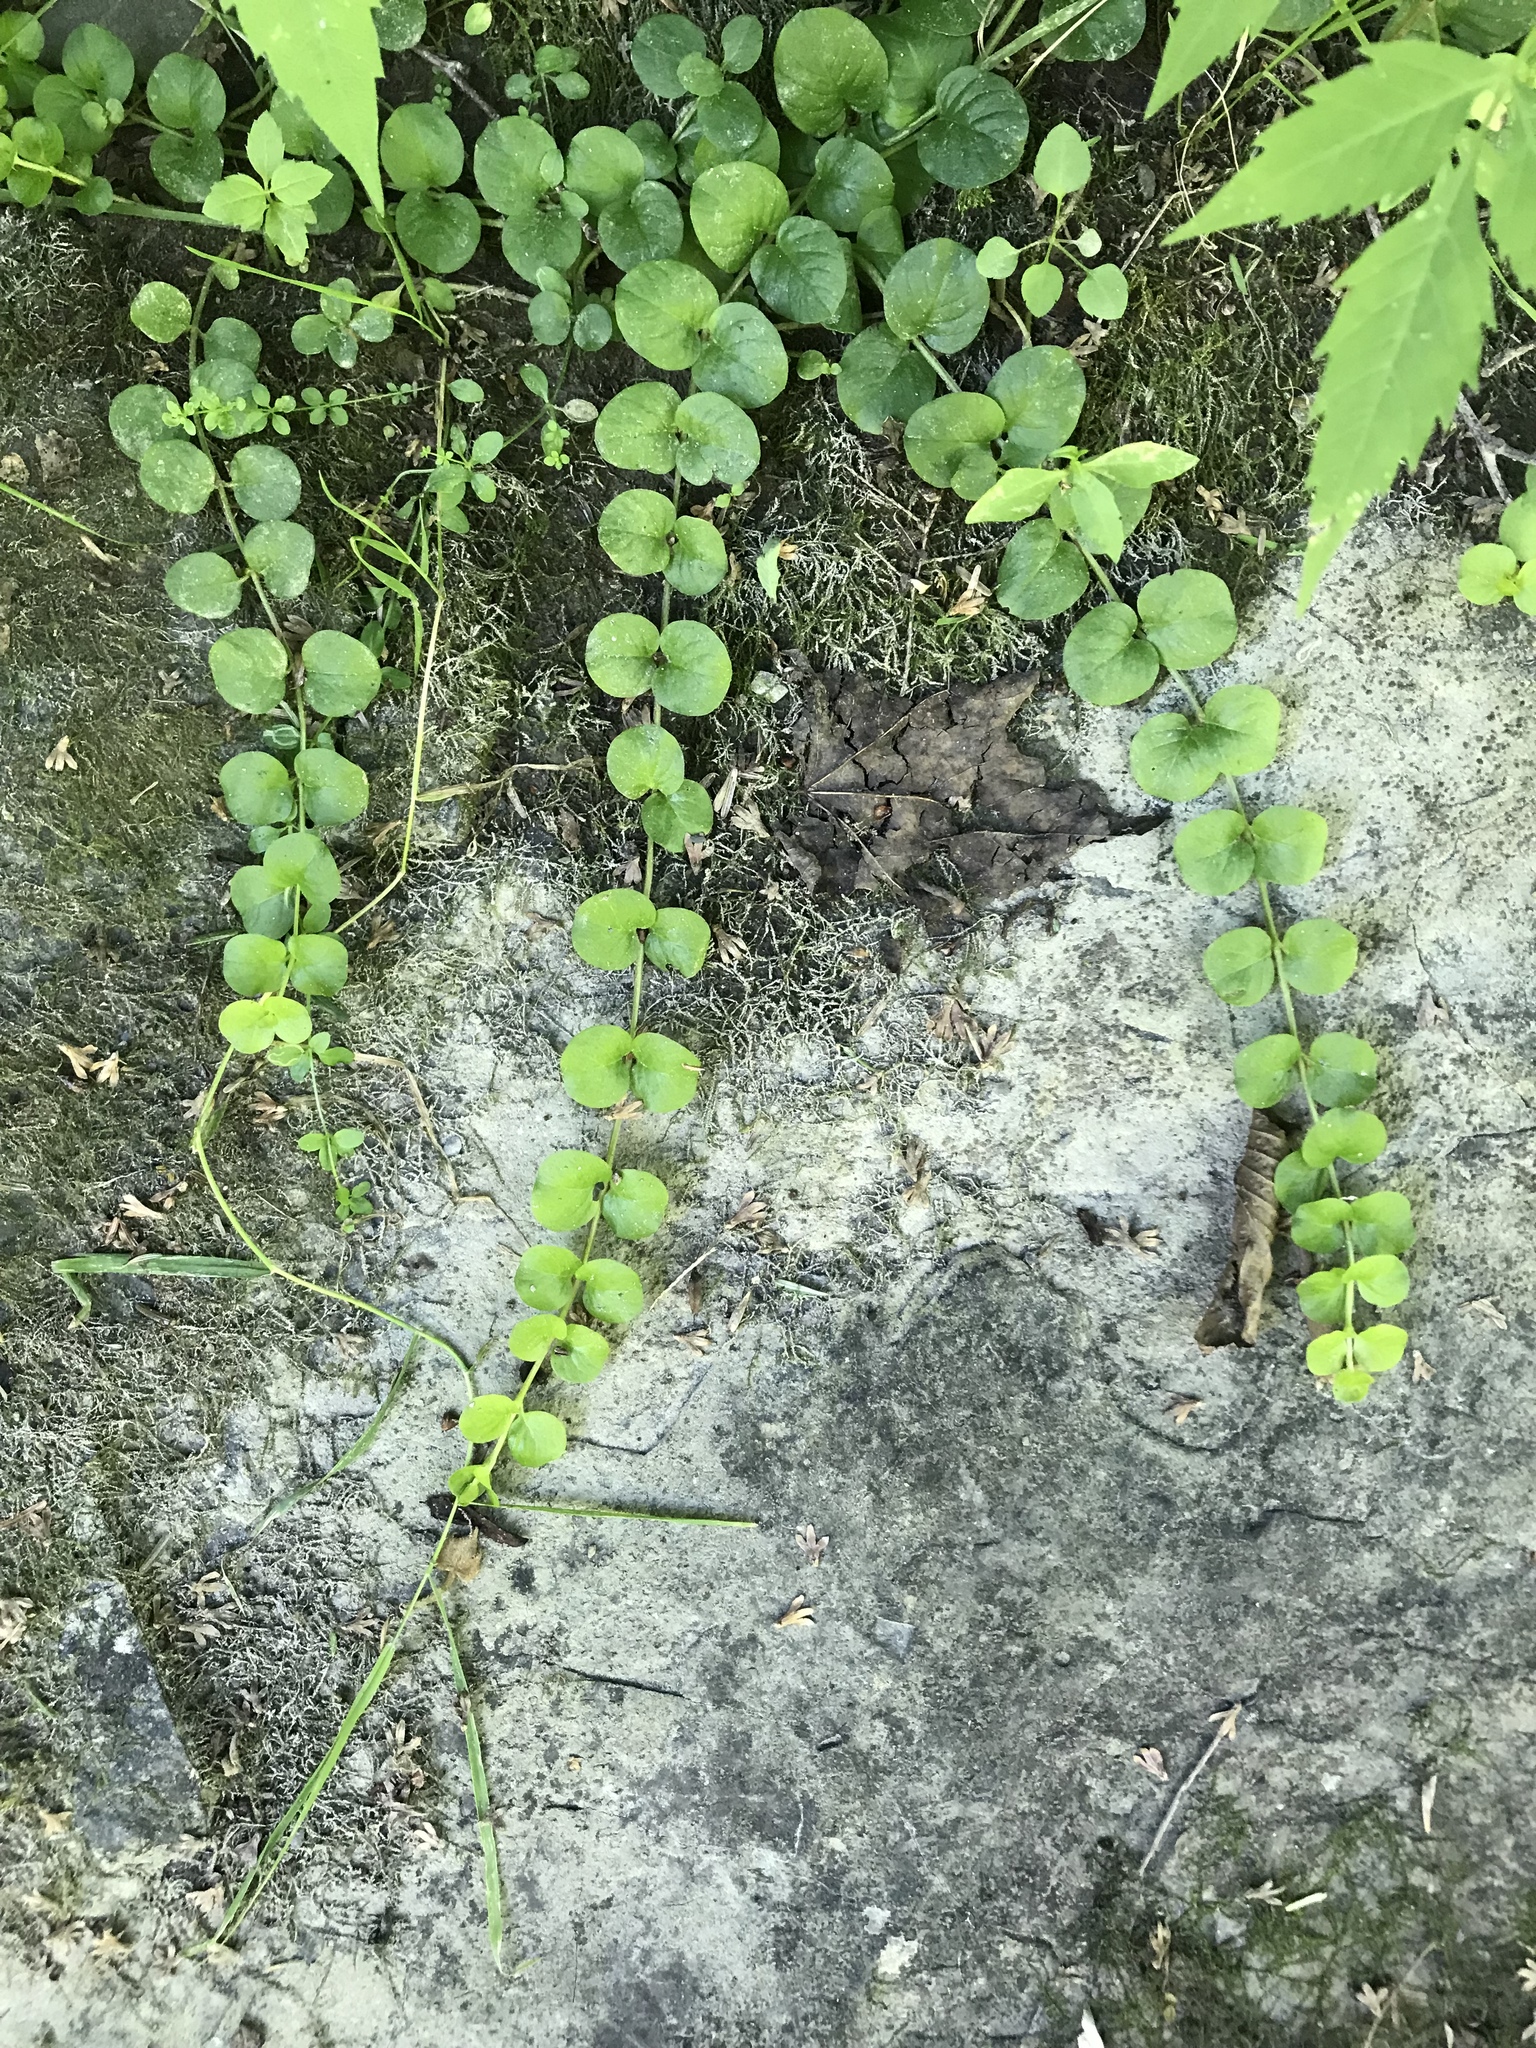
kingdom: Plantae
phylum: Tracheophyta
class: Magnoliopsida
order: Ericales
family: Primulaceae
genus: Lysimachia
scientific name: Lysimachia nummularia
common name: Moneywort
